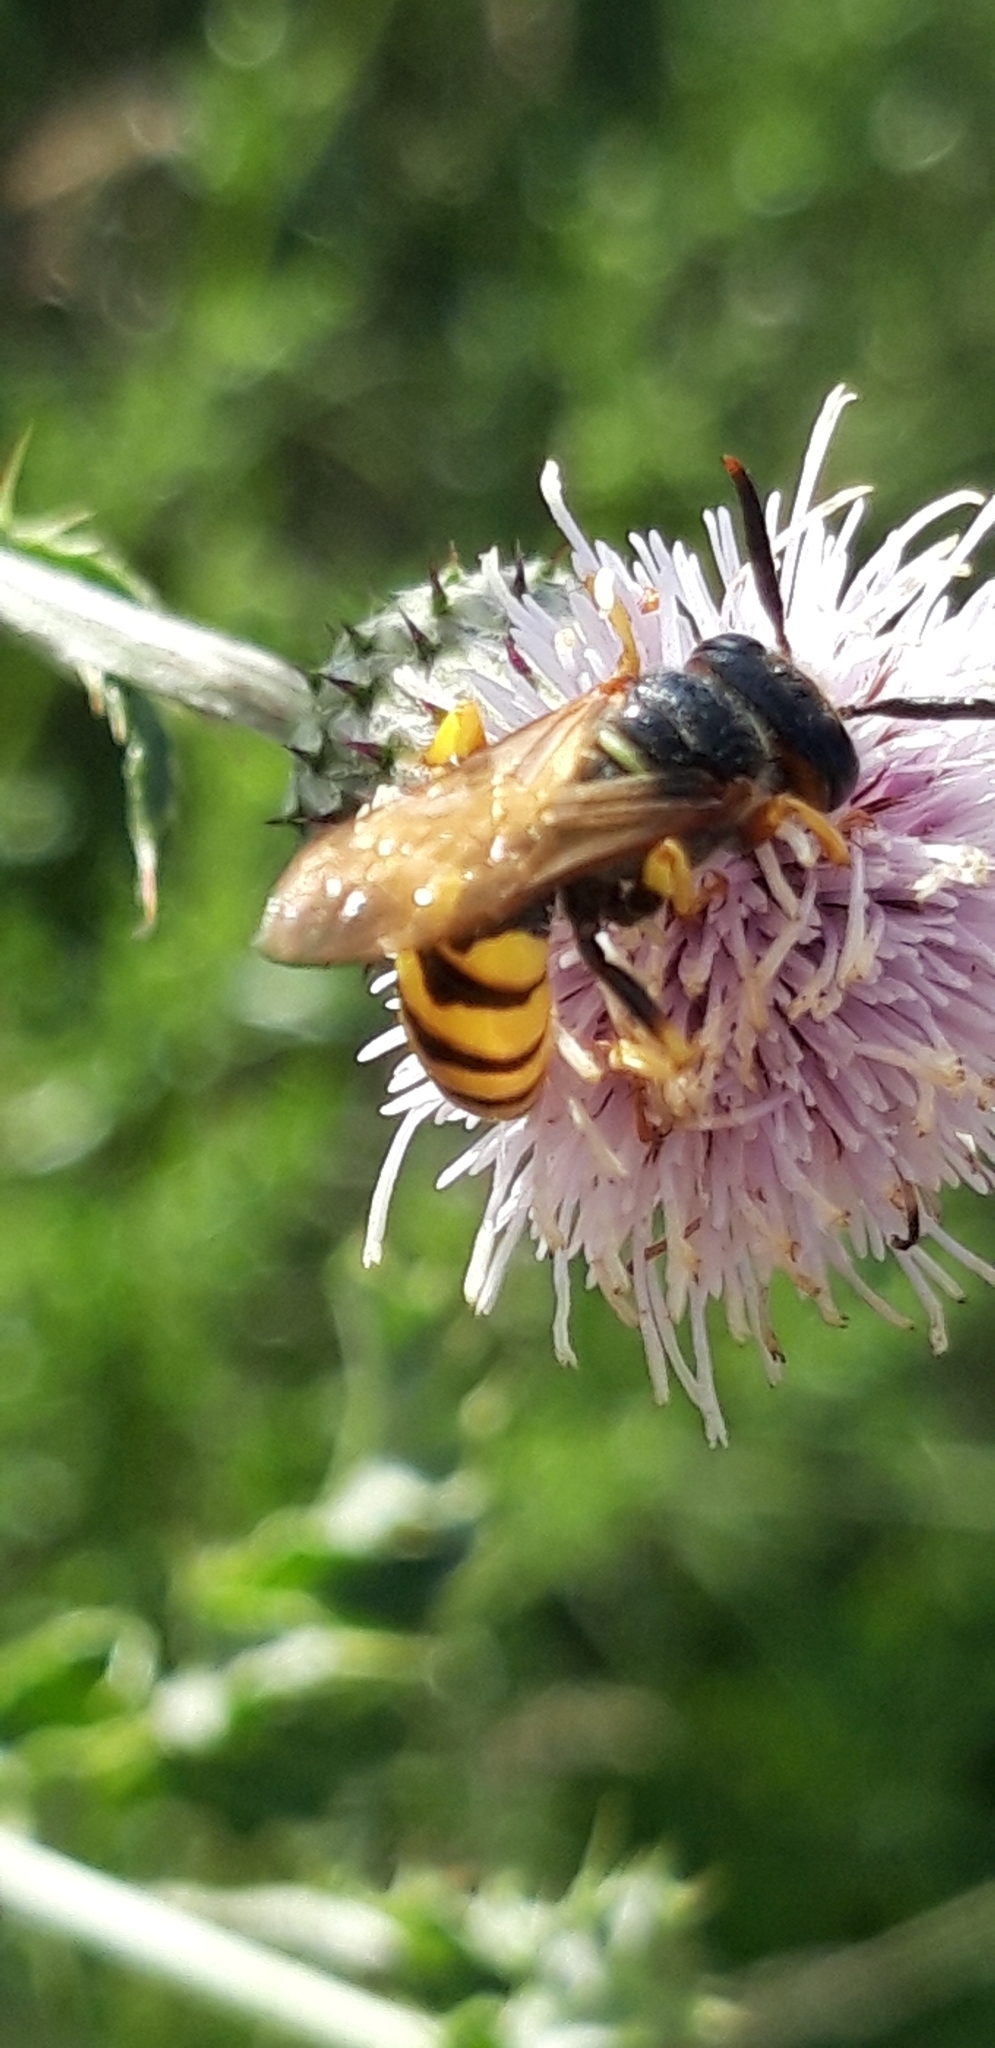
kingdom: Animalia
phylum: Arthropoda
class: Insecta
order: Hymenoptera
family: Crabronidae
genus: Philanthus
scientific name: Philanthus triangulum
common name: Bee wolf
